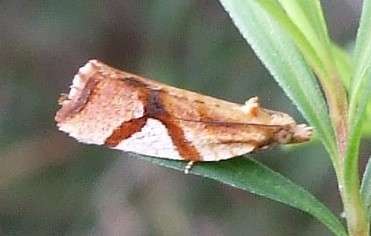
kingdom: Animalia
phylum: Arthropoda
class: Insecta
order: Lepidoptera
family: Tortricidae
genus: Epitymbia
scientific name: Epitymbia isoscelana
